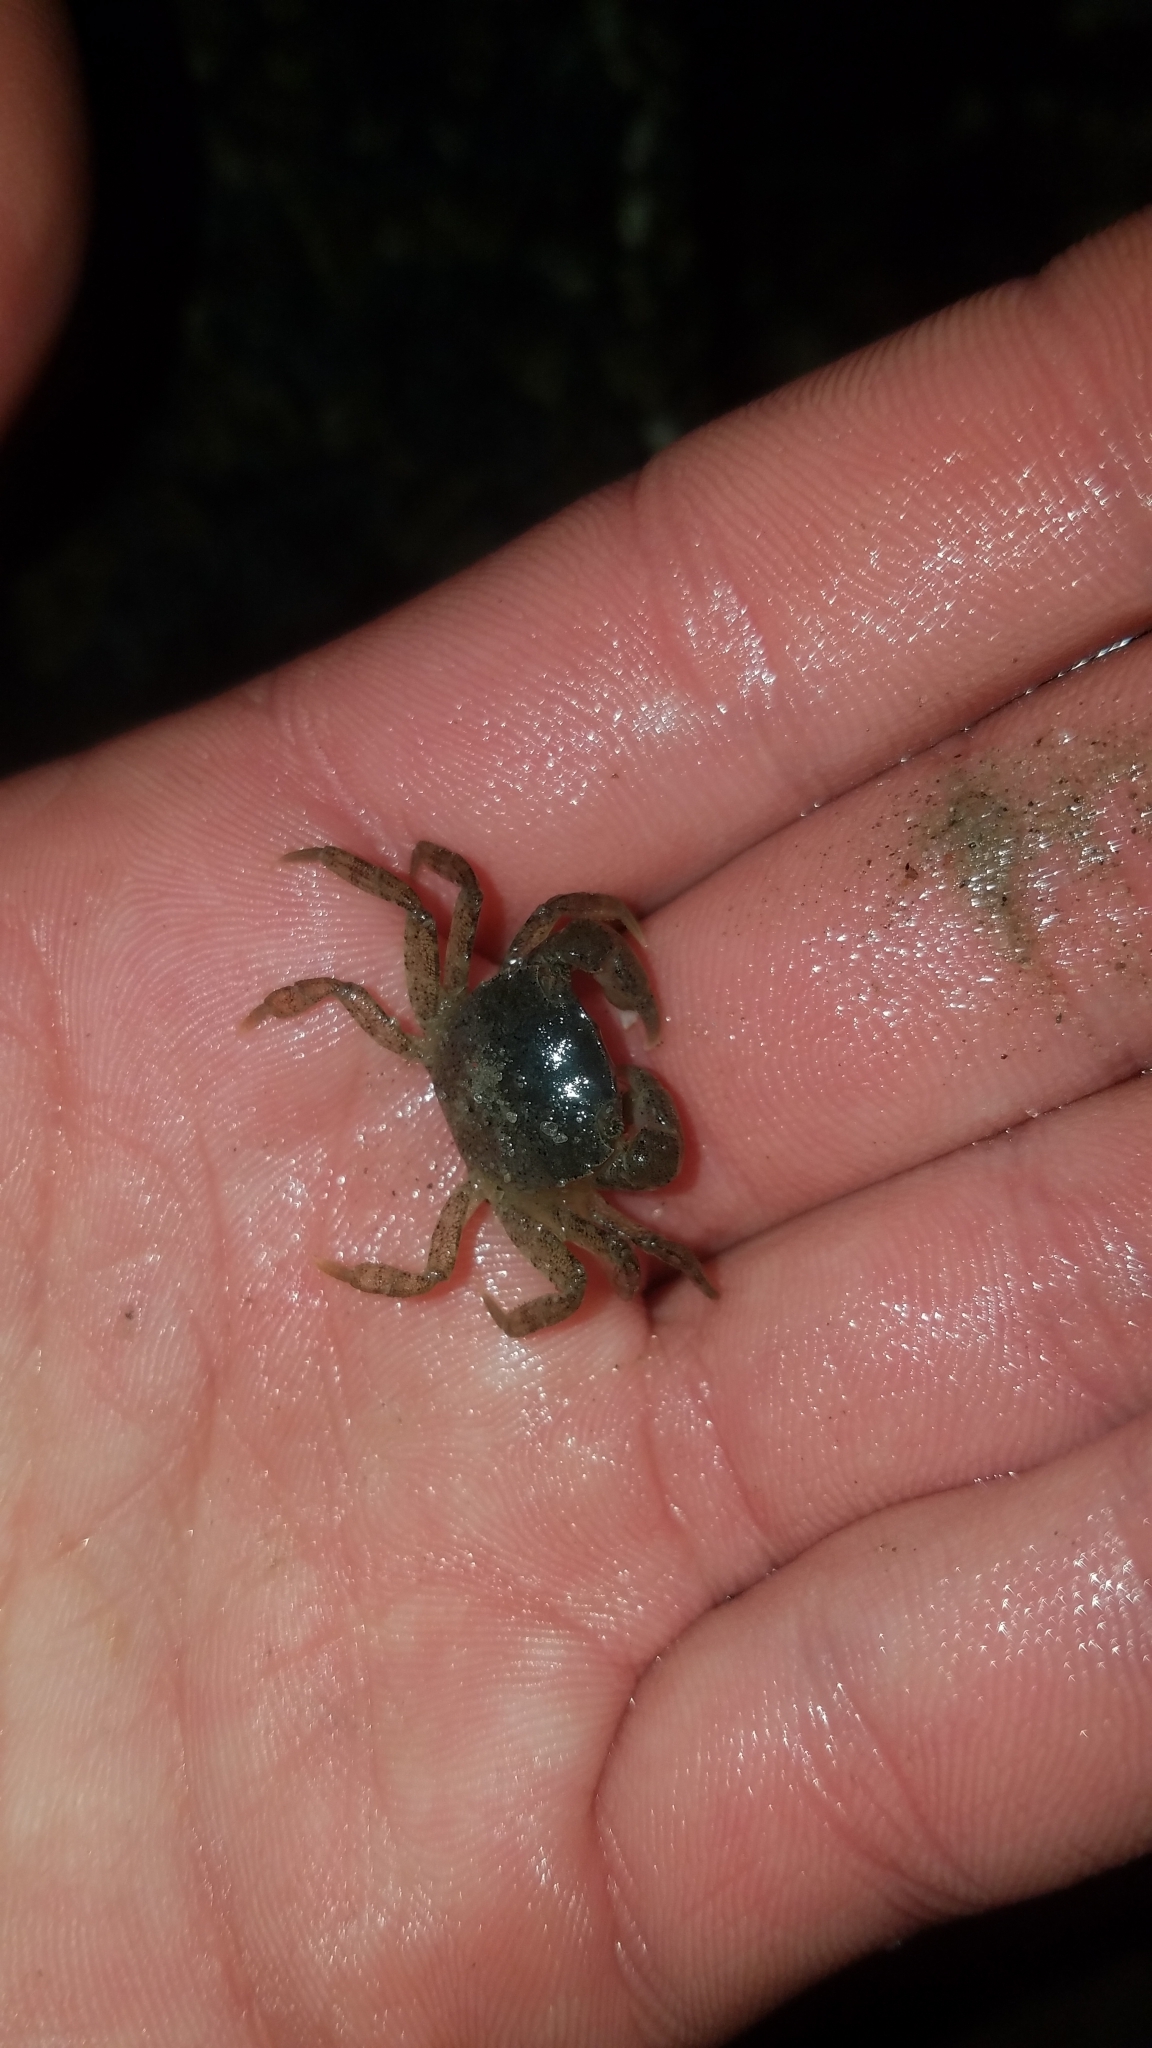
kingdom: Animalia
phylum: Arthropoda
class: Malacostraca
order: Decapoda
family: Varunidae
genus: Hemigrapsus
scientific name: Hemigrapsus takanoi
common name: Asian brush crab
